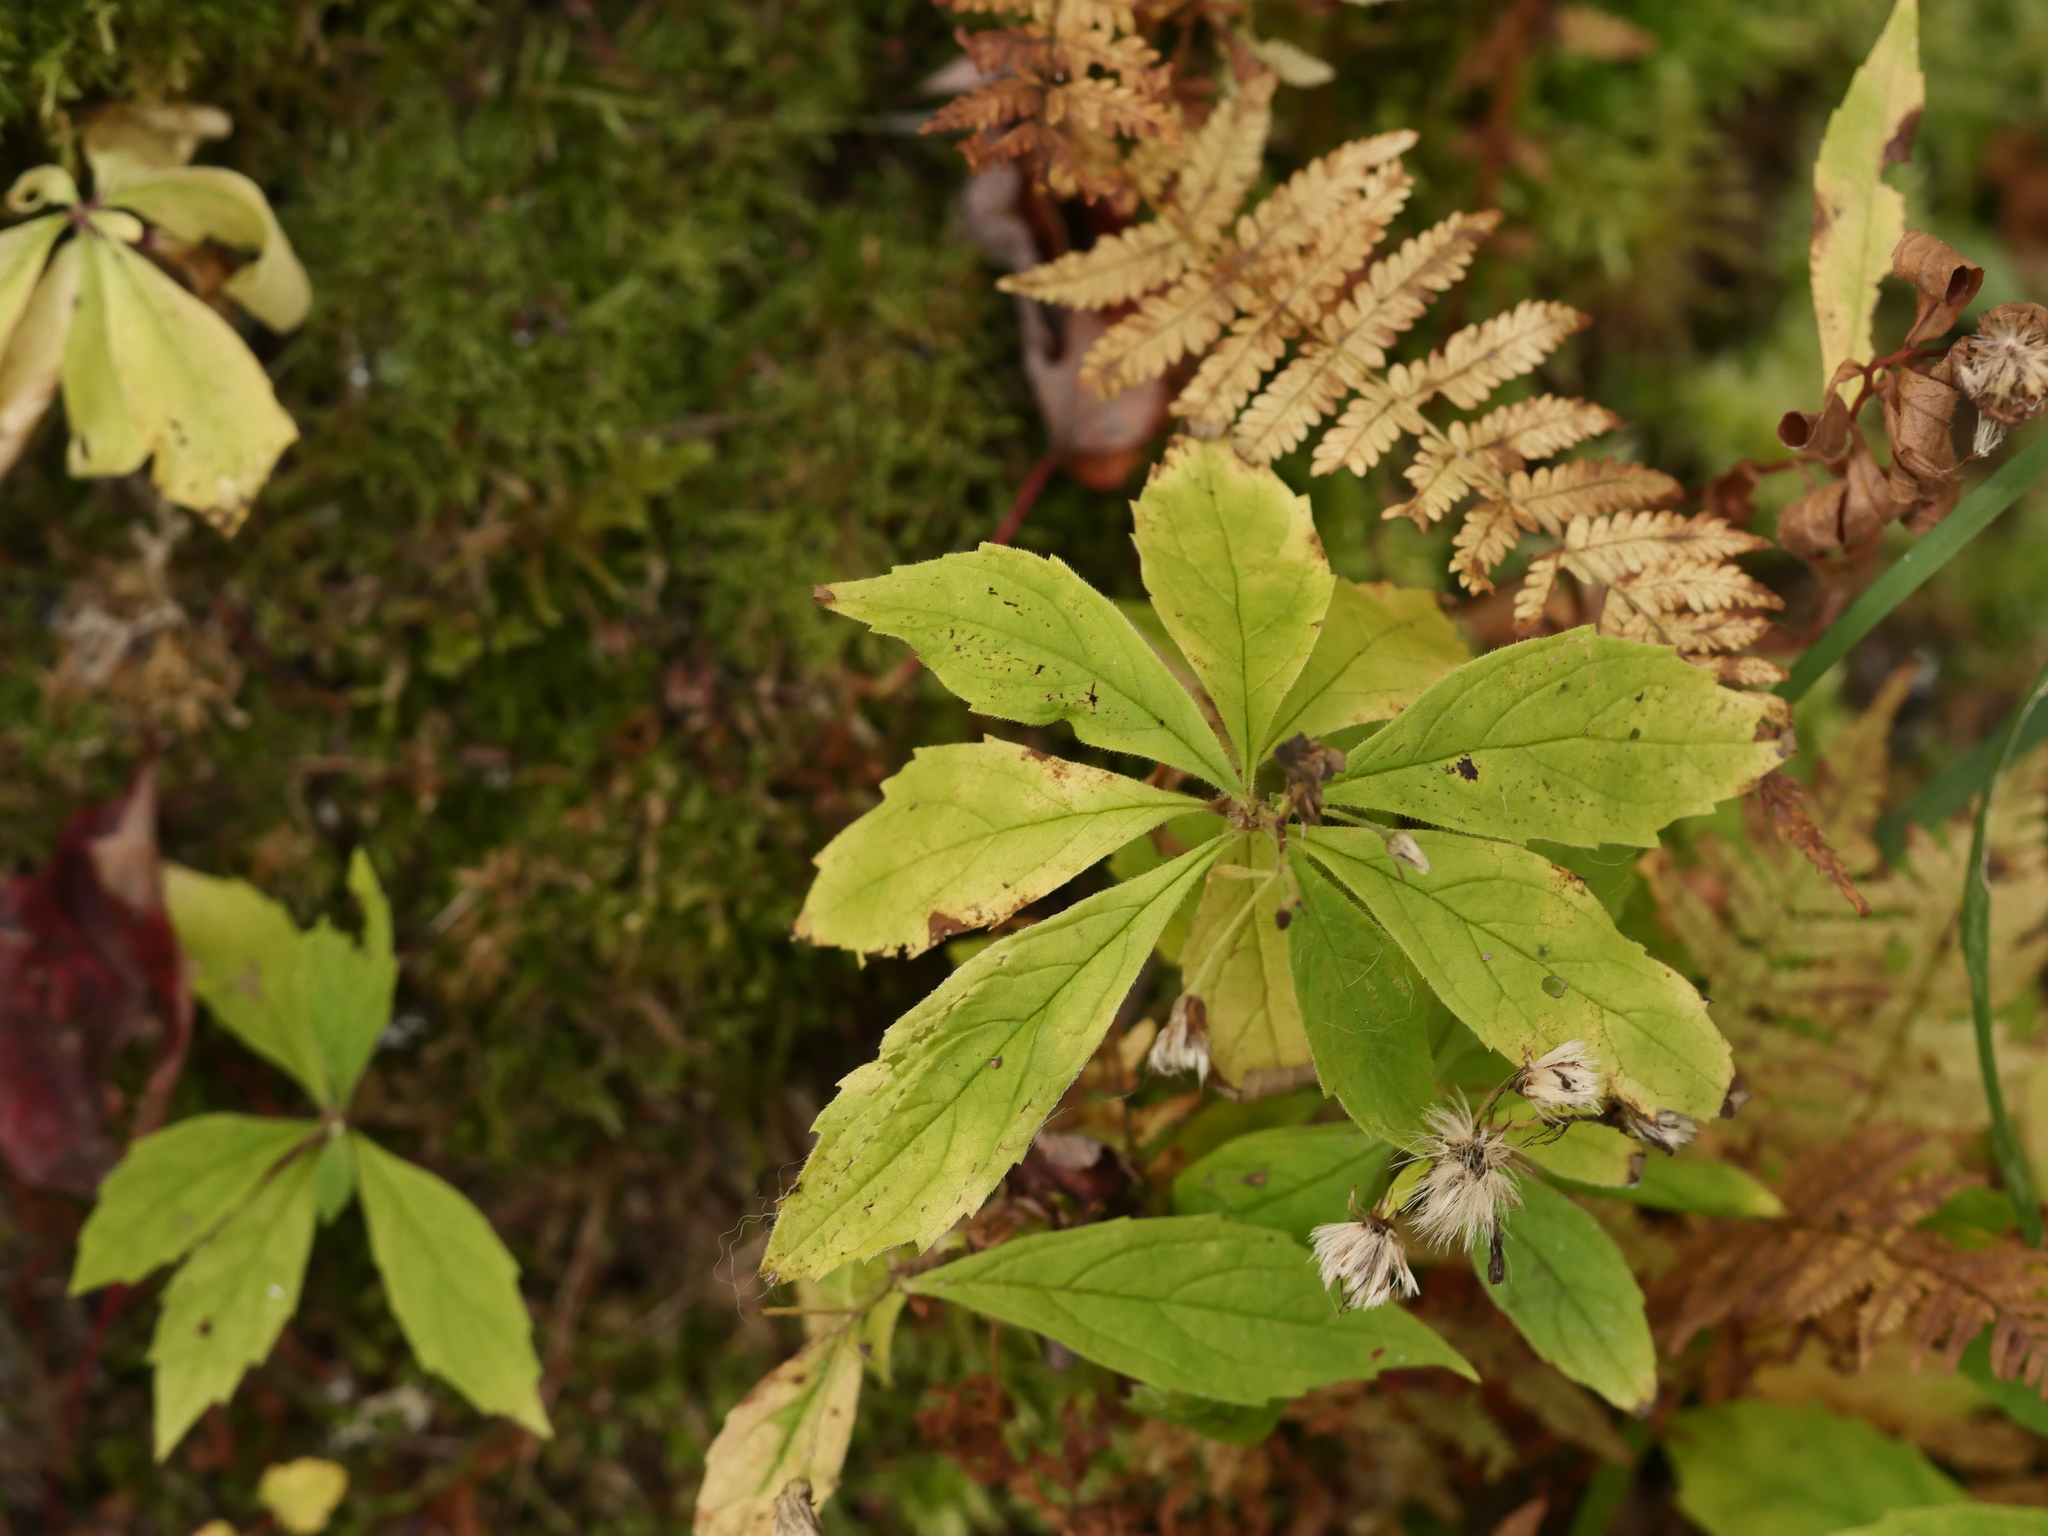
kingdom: Plantae
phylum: Tracheophyta
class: Magnoliopsida
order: Asterales
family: Asteraceae
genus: Oclemena
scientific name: Oclemena acuminata
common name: Mountain aster
